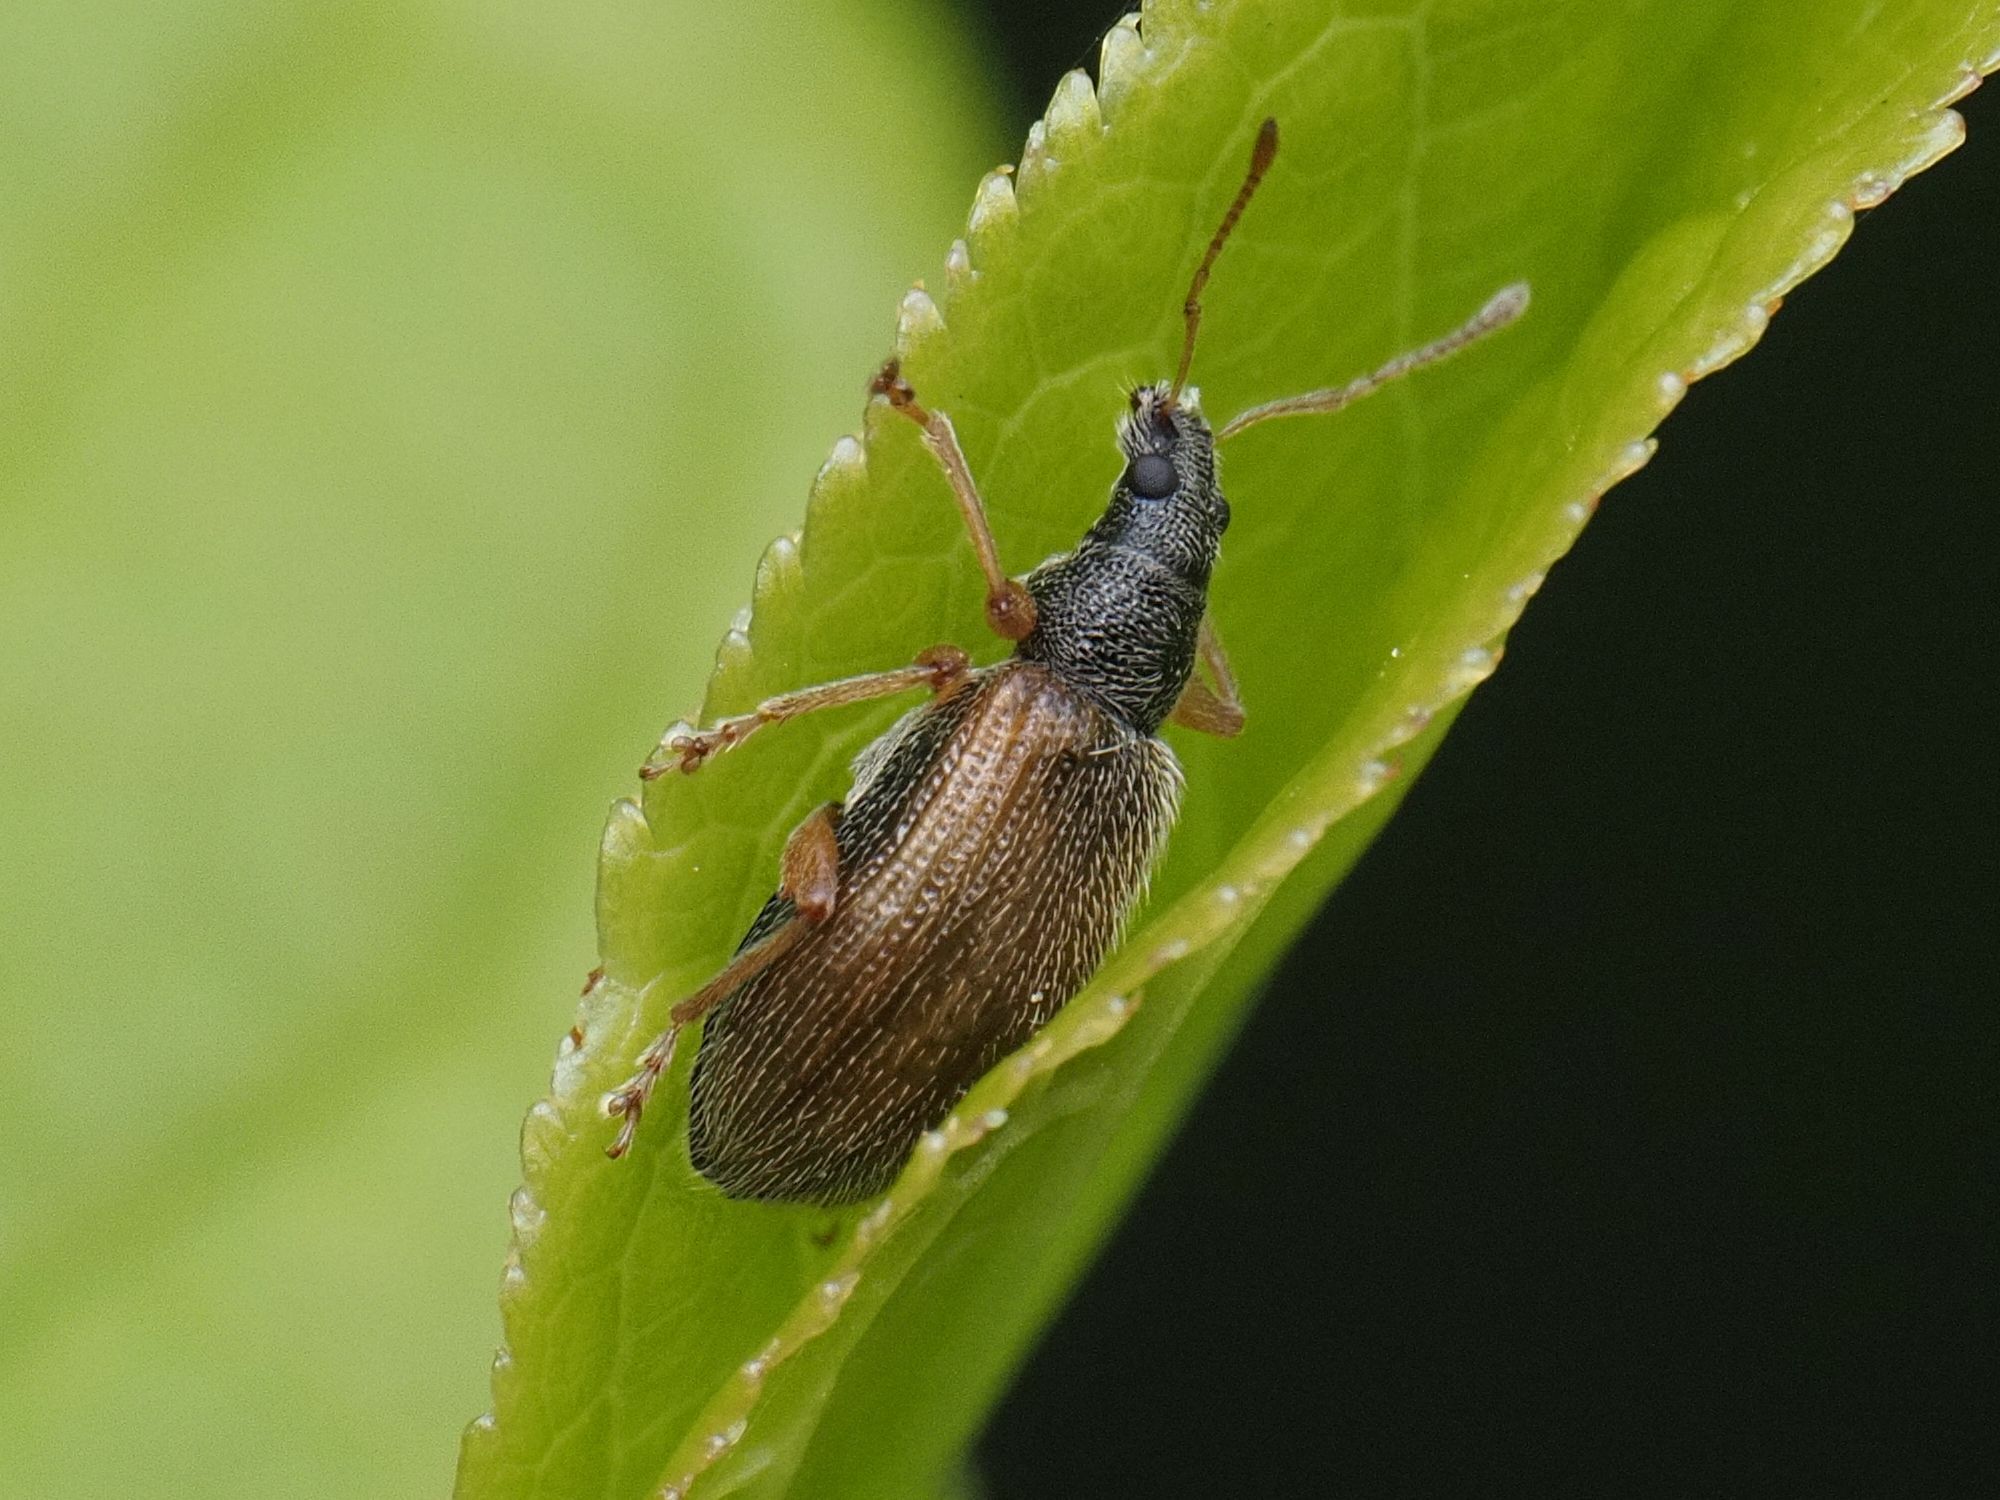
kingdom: Animalia
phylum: Arthropoda
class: Insecta
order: Coleoptera
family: Curculionidae
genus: Phyllobius
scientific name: Phyllobius oblongus
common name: Brown leaf weevil
